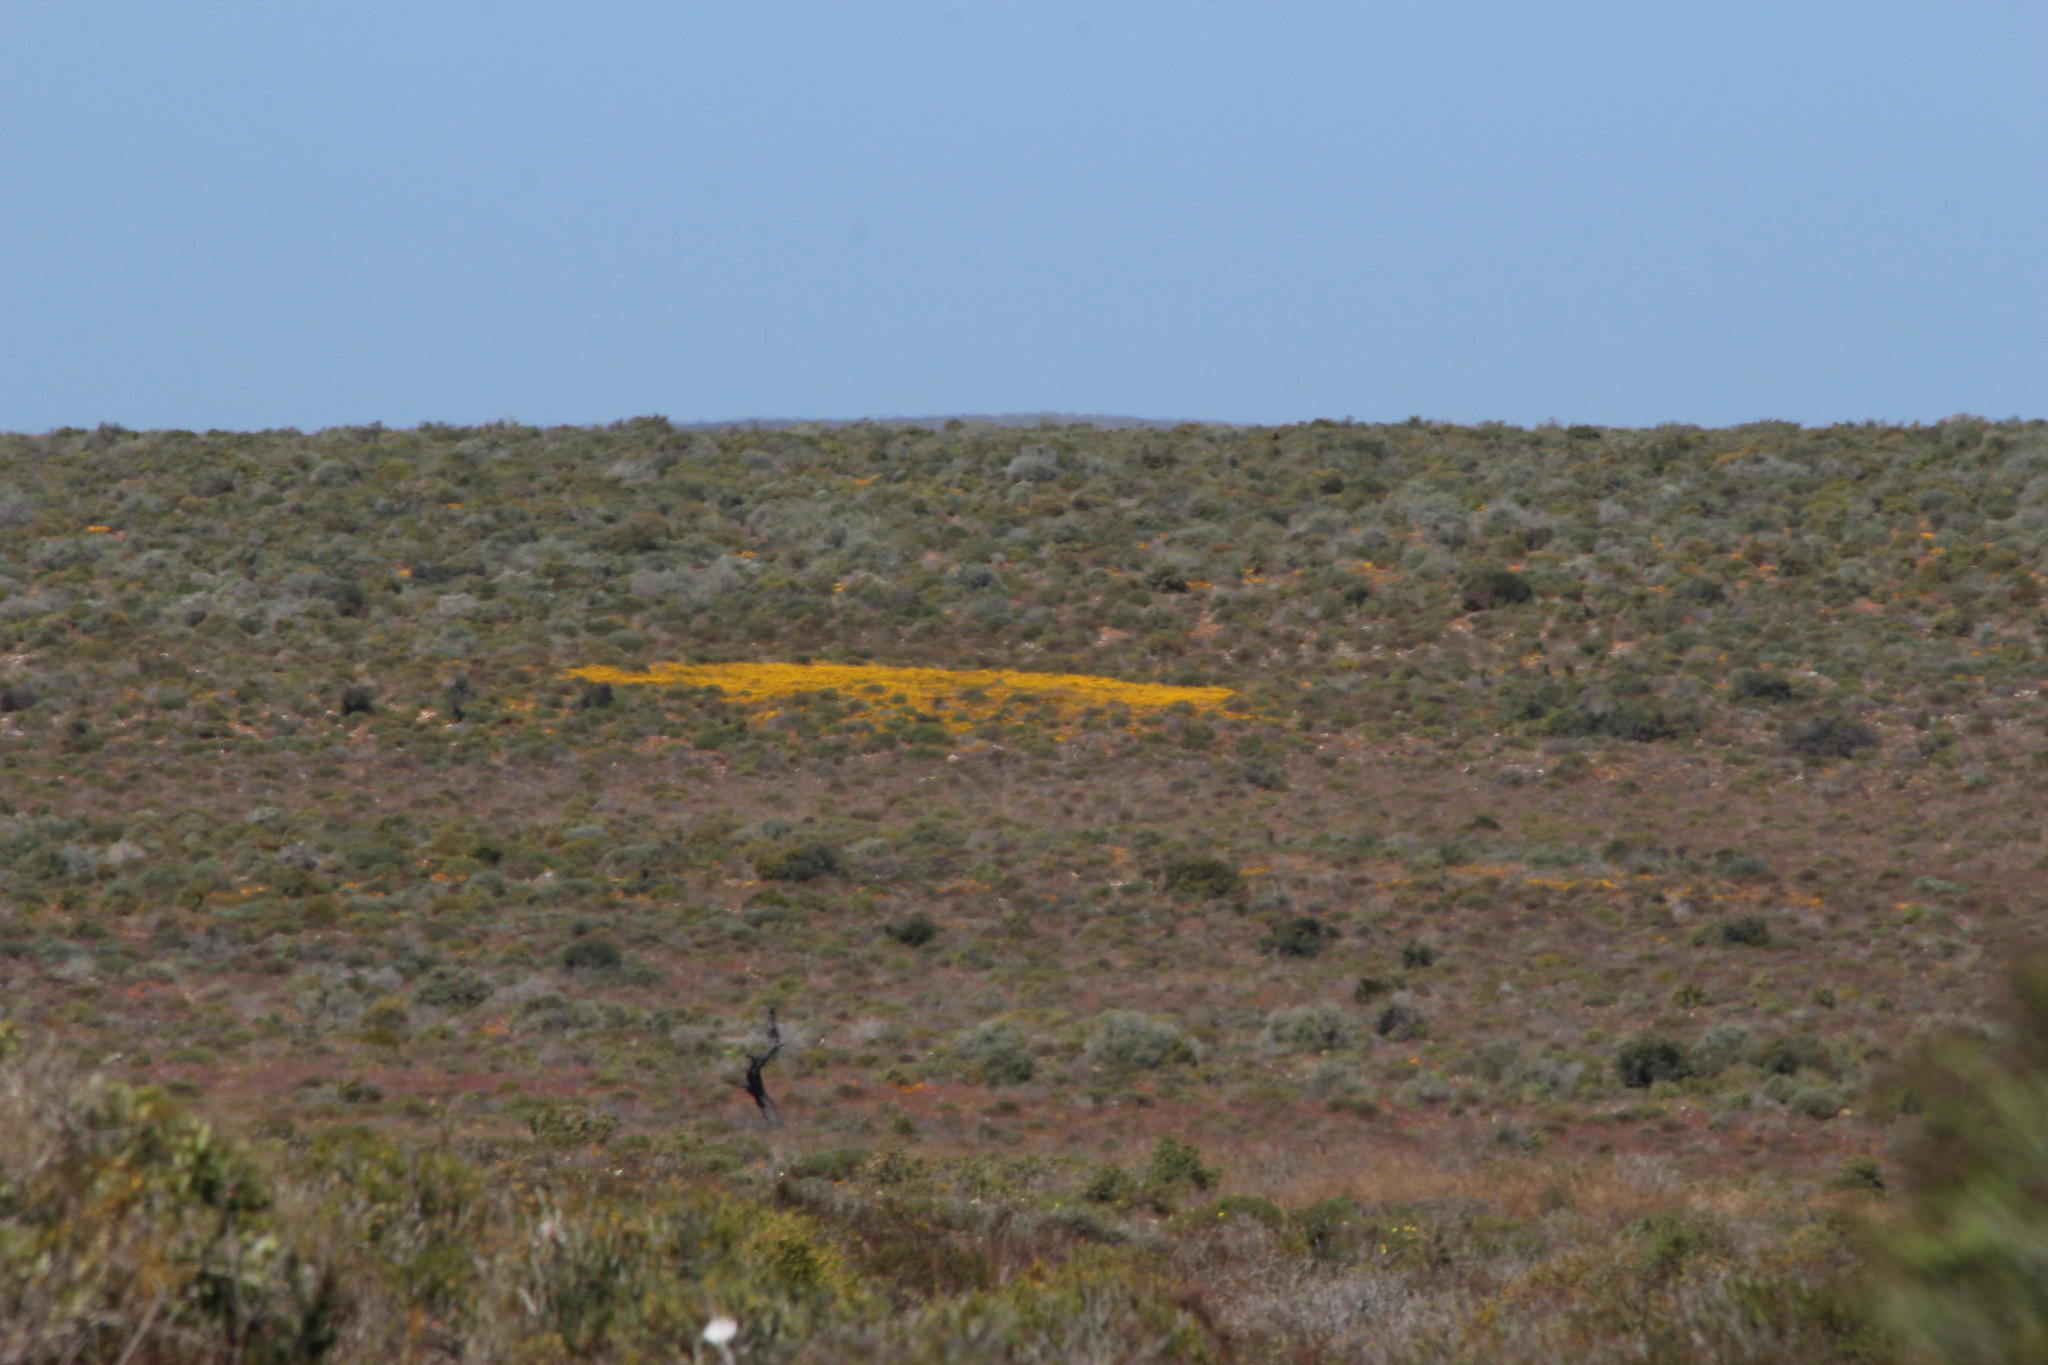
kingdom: Animalia
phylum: Arthropoda
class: Insecta
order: Blattodea
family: Hodotermitidae
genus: Microhodotermes
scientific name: Microhodotermes viator
